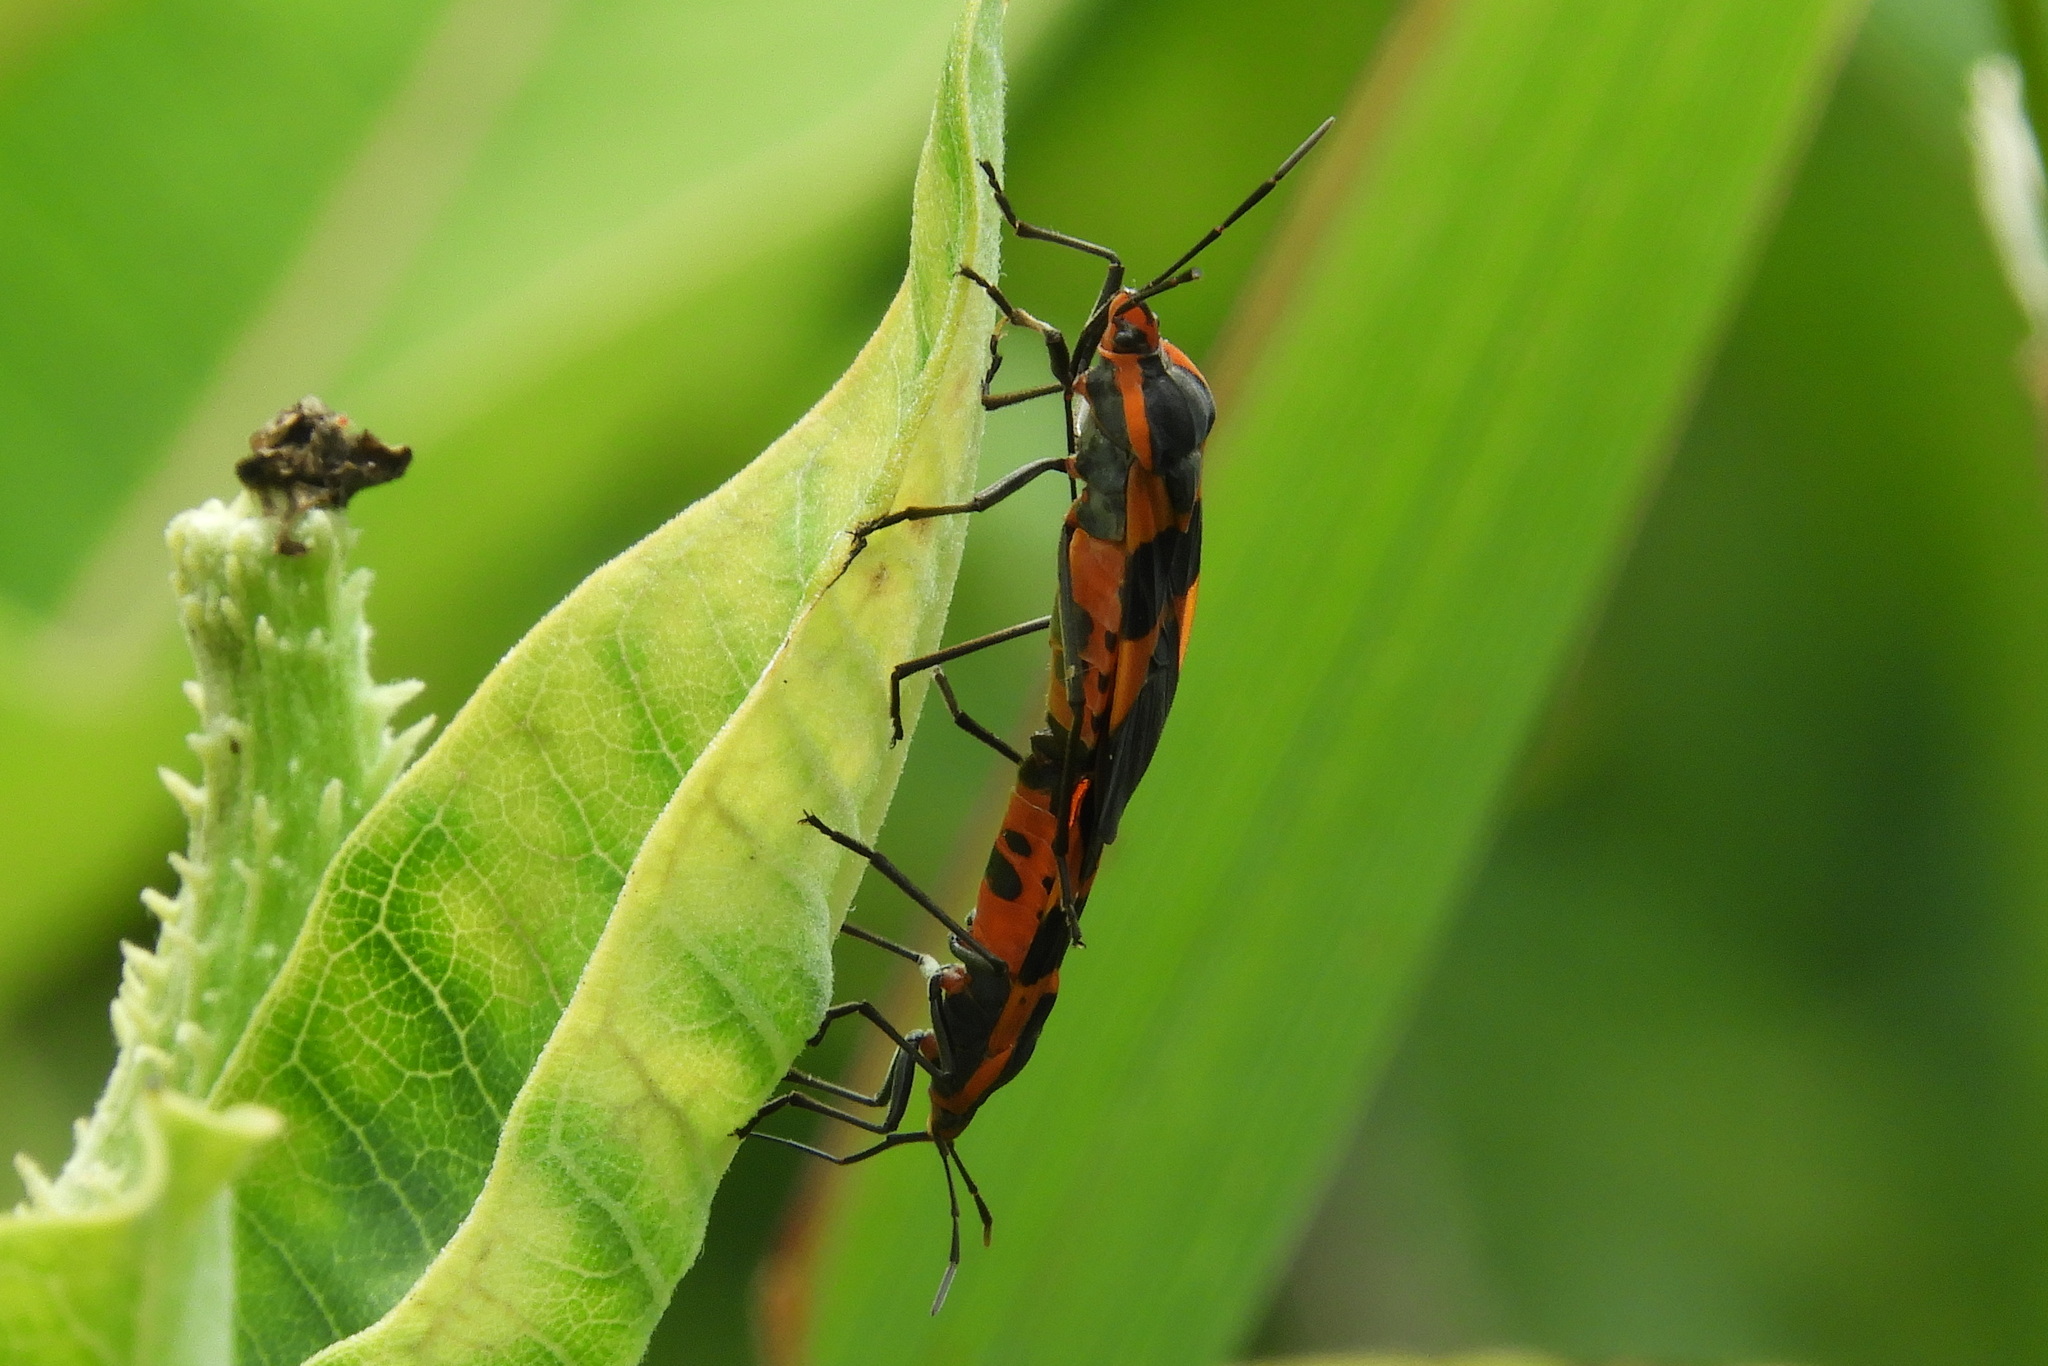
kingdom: Animalia
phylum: Arthropoda
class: Insecta
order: Hemiptera
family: Lygaeidae
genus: Oncopeltus
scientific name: Oncopeltus fasciatus
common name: Large milkweed bug
